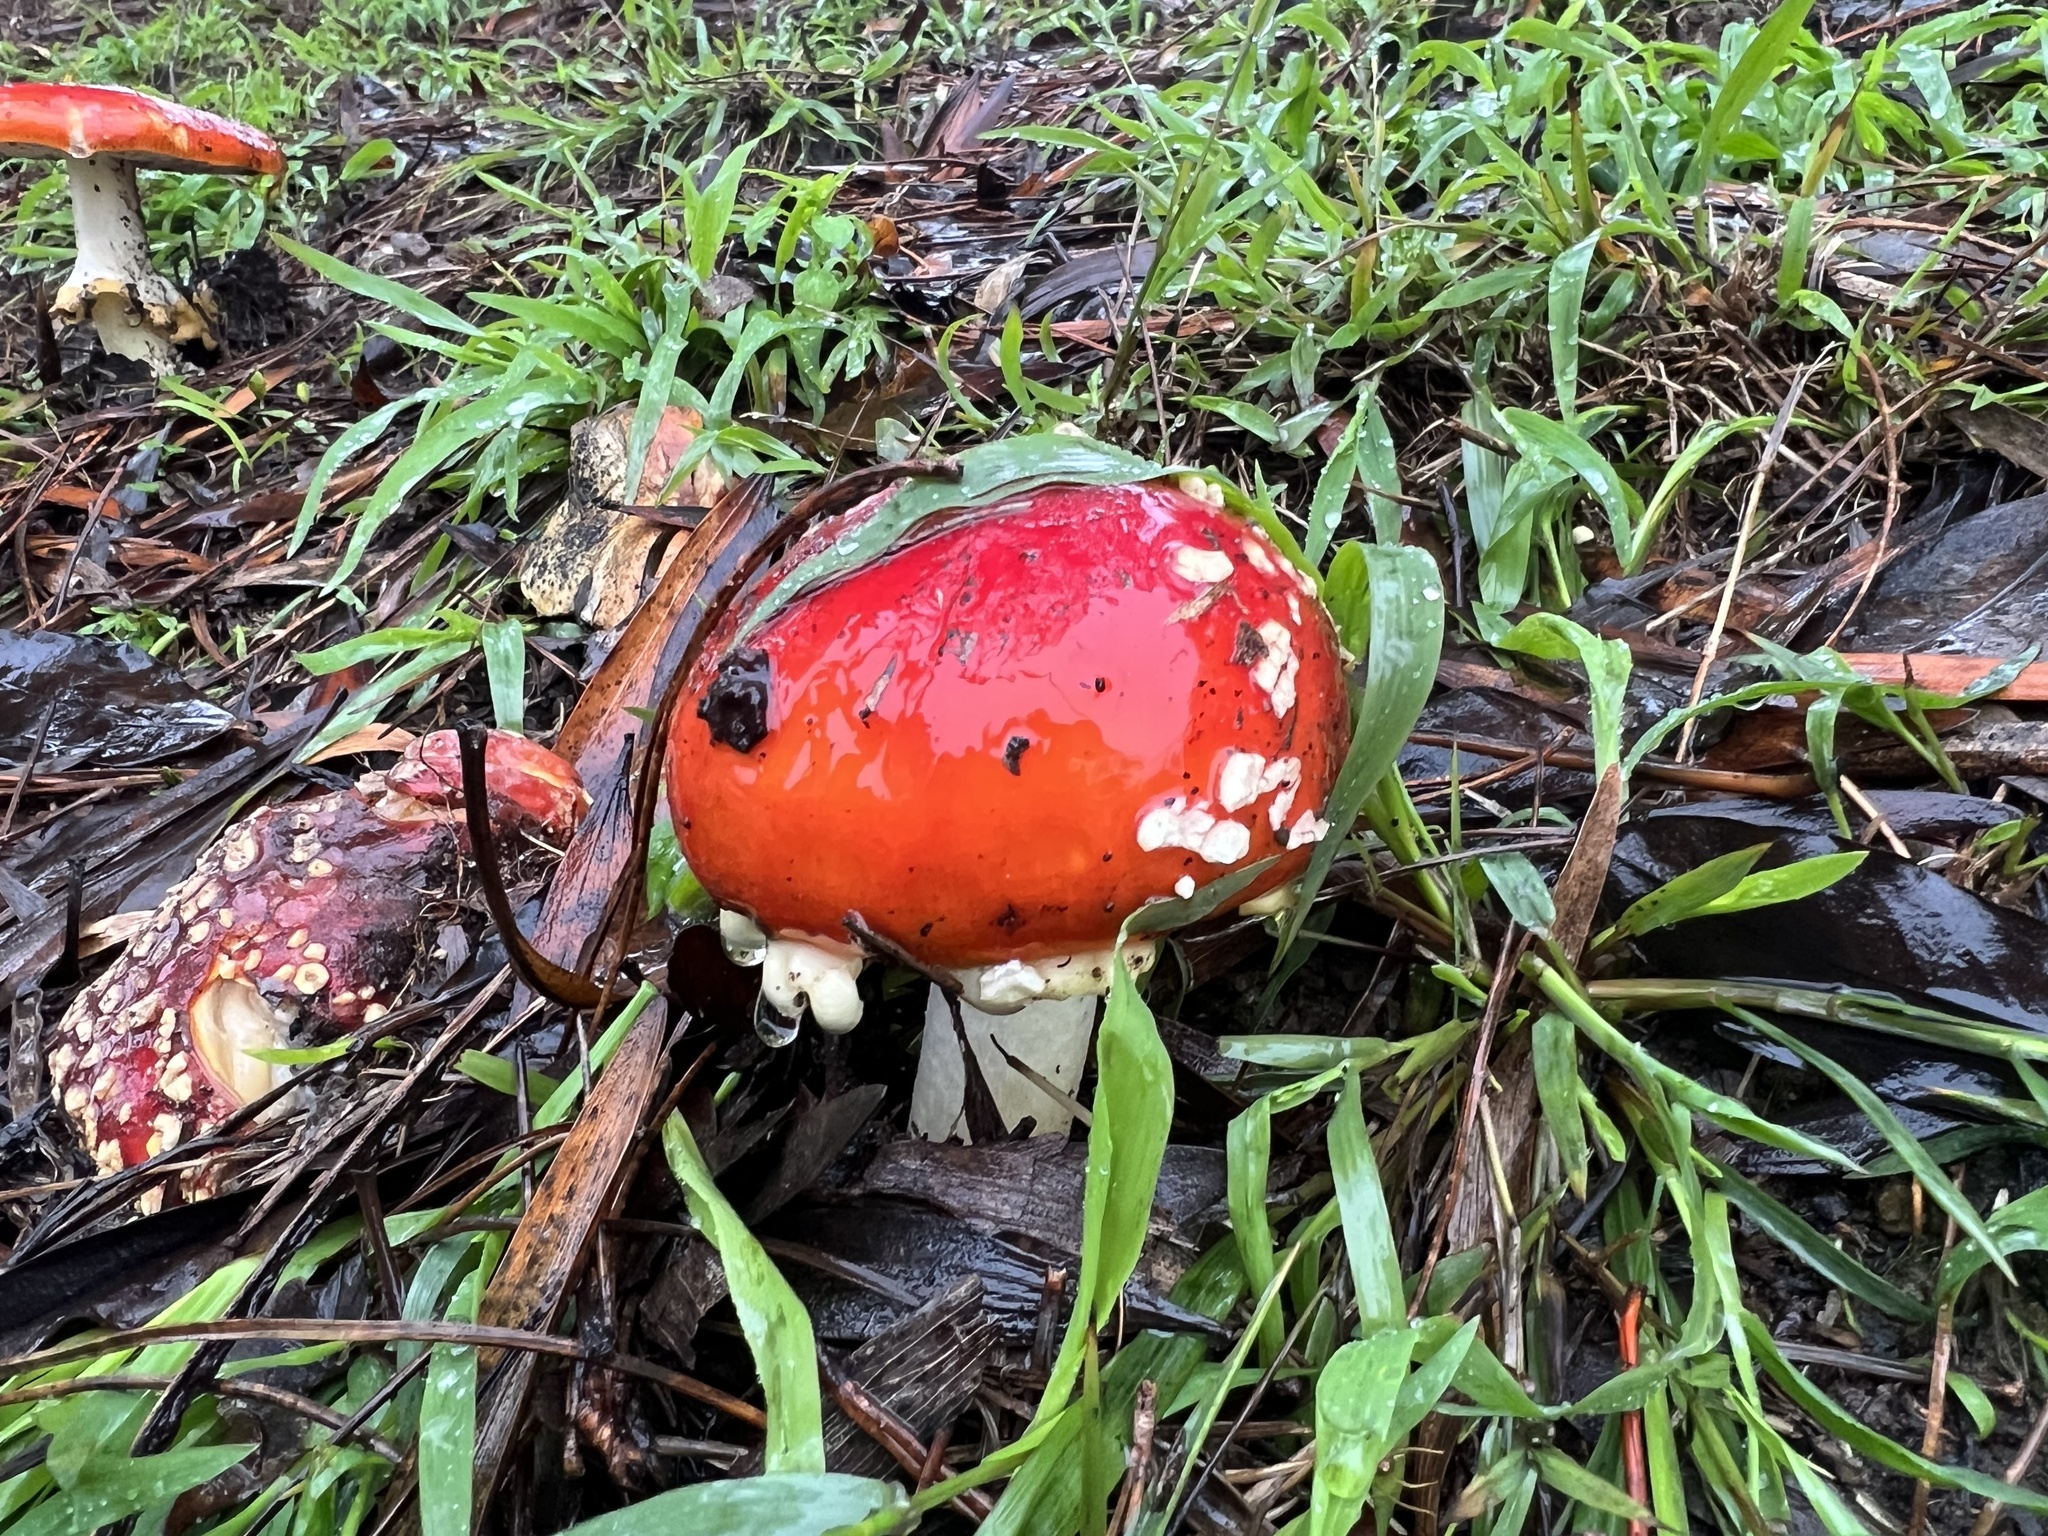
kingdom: Fungi
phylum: Basidiomycota
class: Agaricomycetes
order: Agaricales
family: Amanitaceae
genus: Amanita
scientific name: Amanita muscaria
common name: Fly agaric
